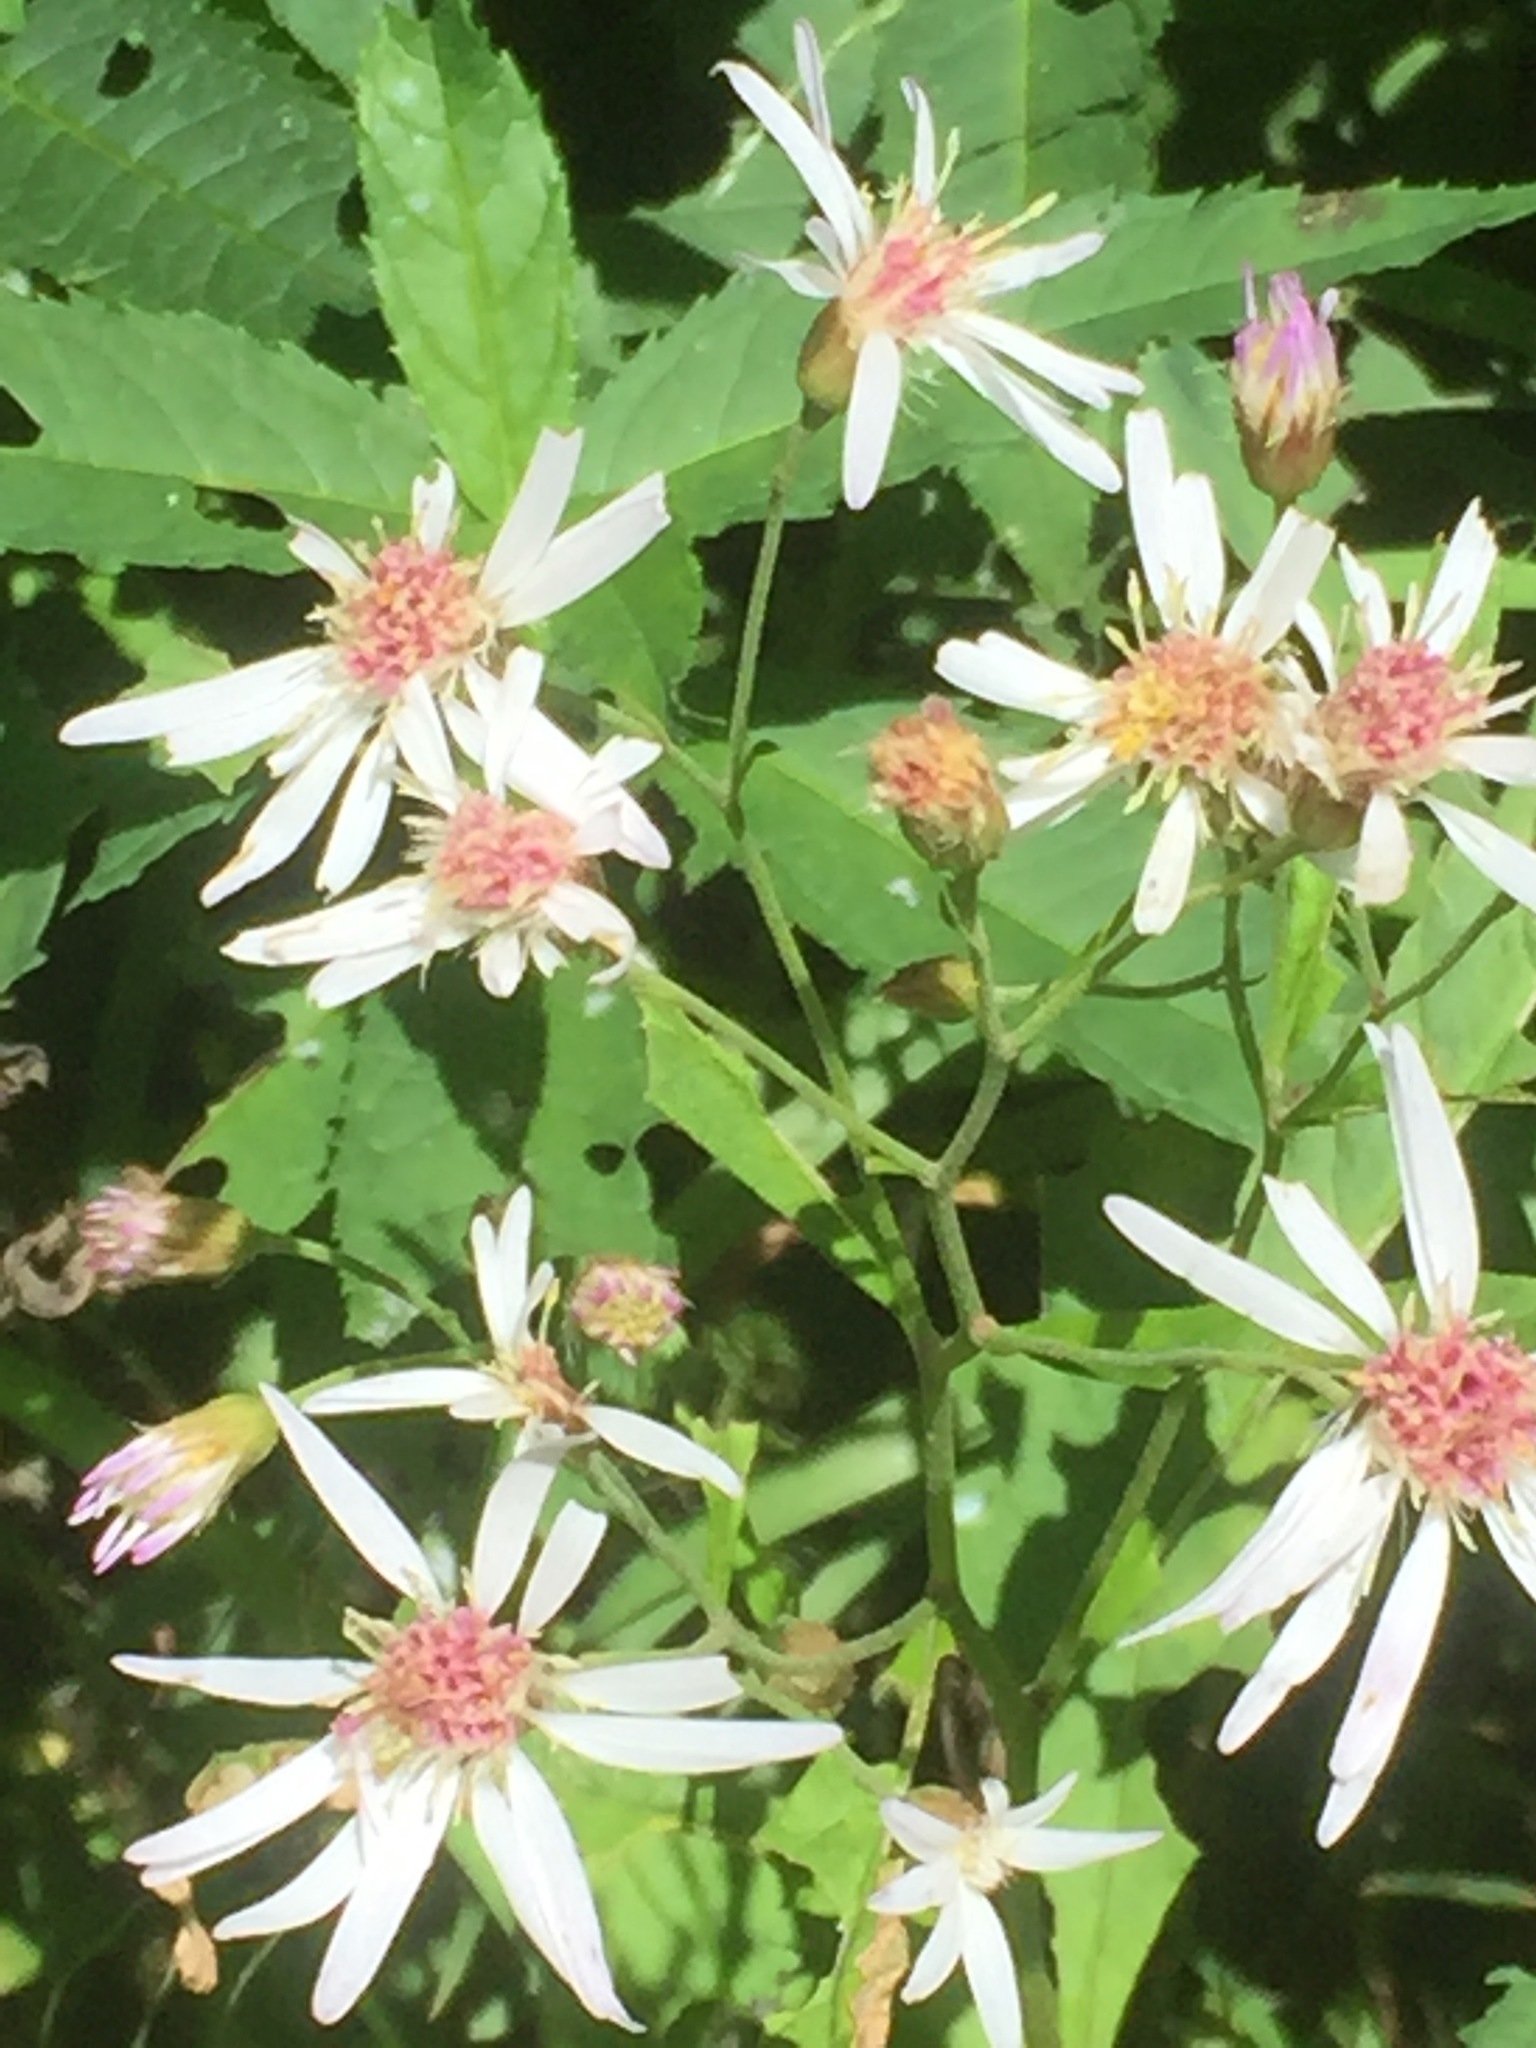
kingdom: Plantae
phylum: Tracheophyta
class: Magnoliopsida
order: Asterales
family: Asteraceae
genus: Eurybia
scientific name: Eurybia divaricata
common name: White wood aster
